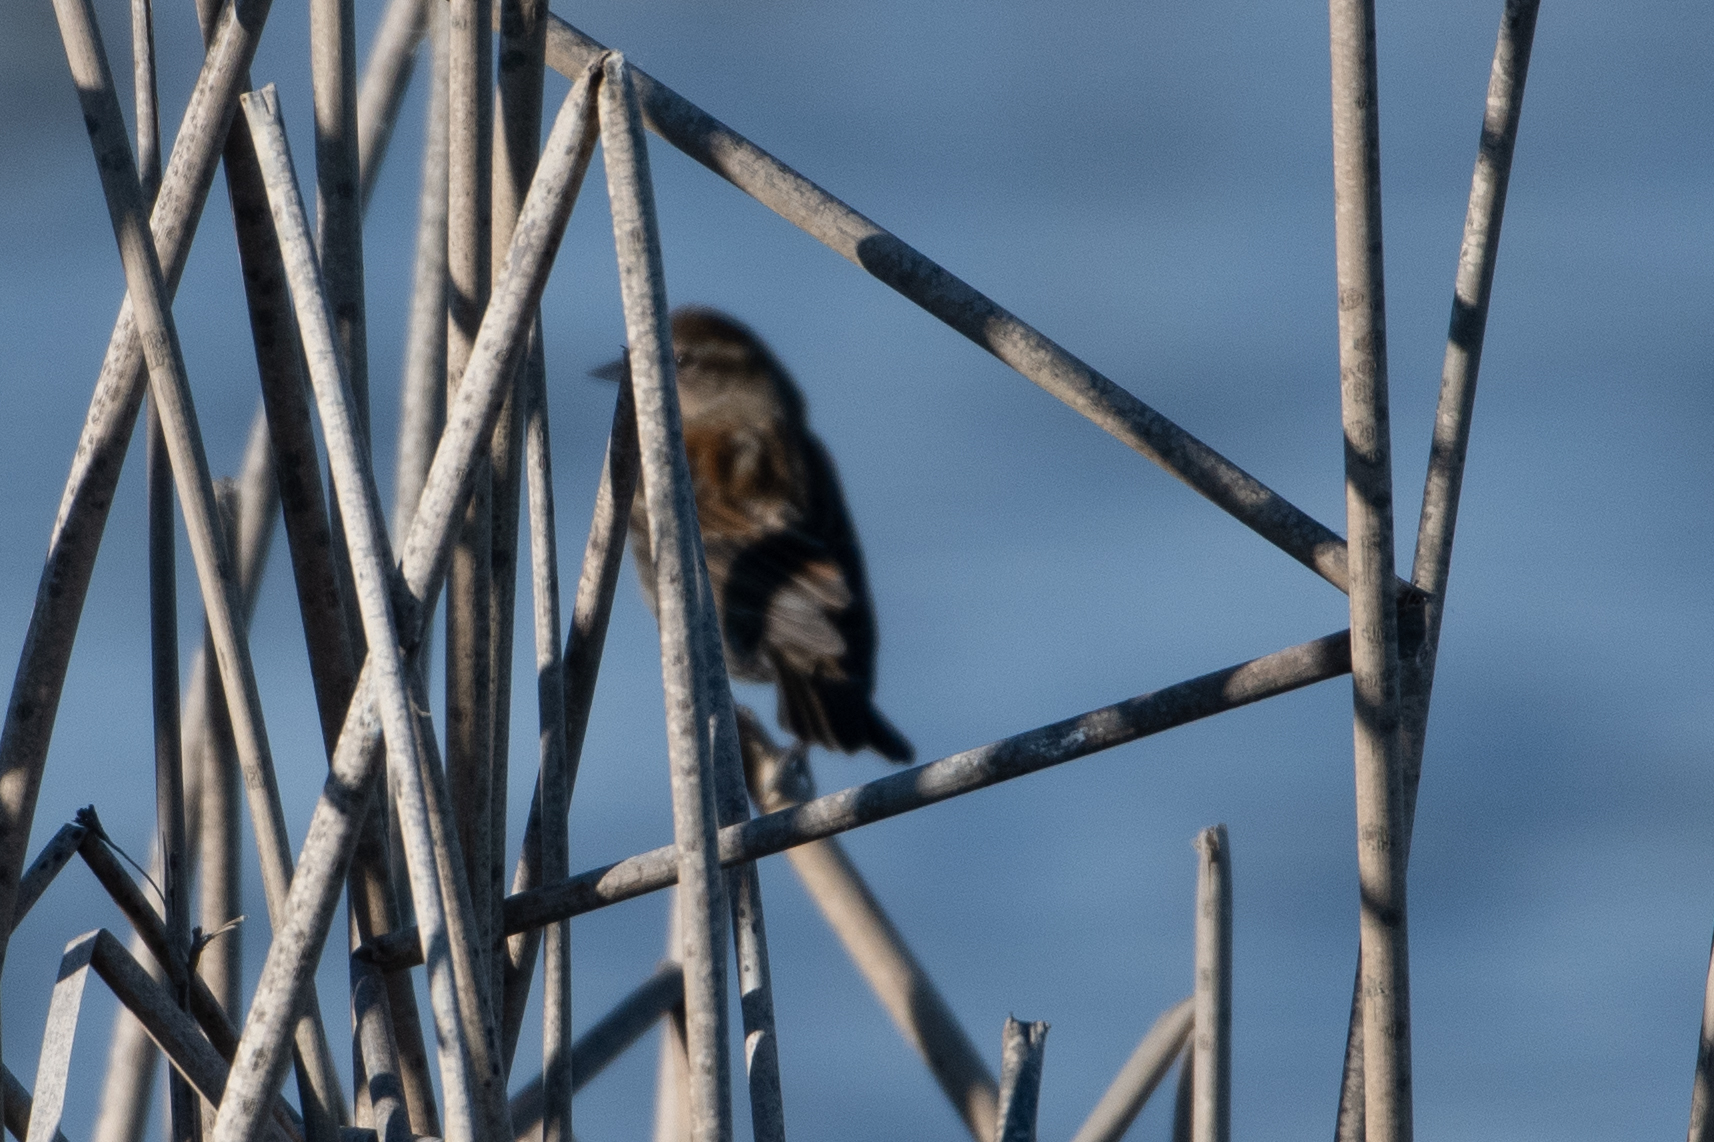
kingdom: Animalia
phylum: Chordata
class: Aves
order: Passeriformes
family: Icteridae
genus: Agelaius
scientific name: Agelaius phoeniceus
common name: Red-winged blackbird
